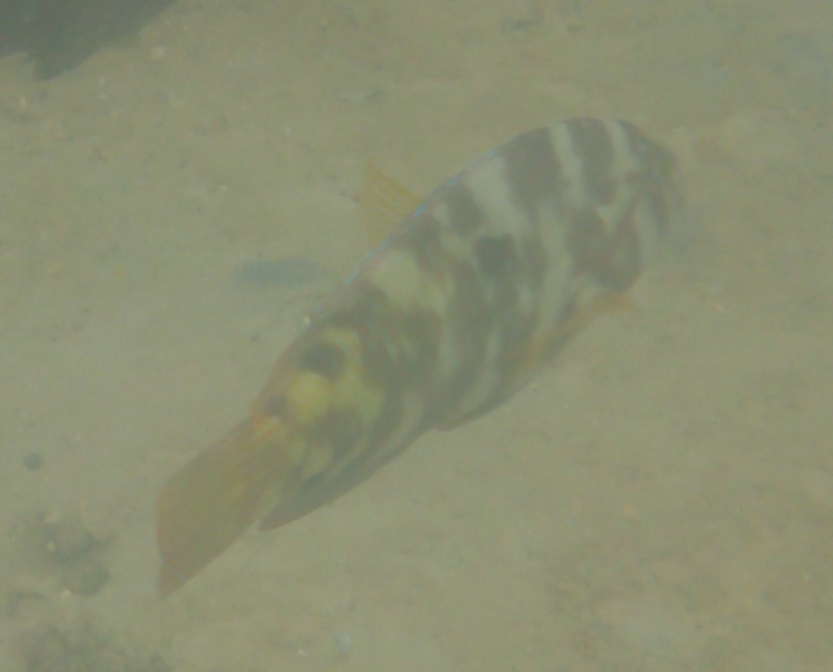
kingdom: Animalia
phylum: Chordata
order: Perciformes
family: Labridae
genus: Choerodon
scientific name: Choerodon graphicus
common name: Graphic tuskfish
